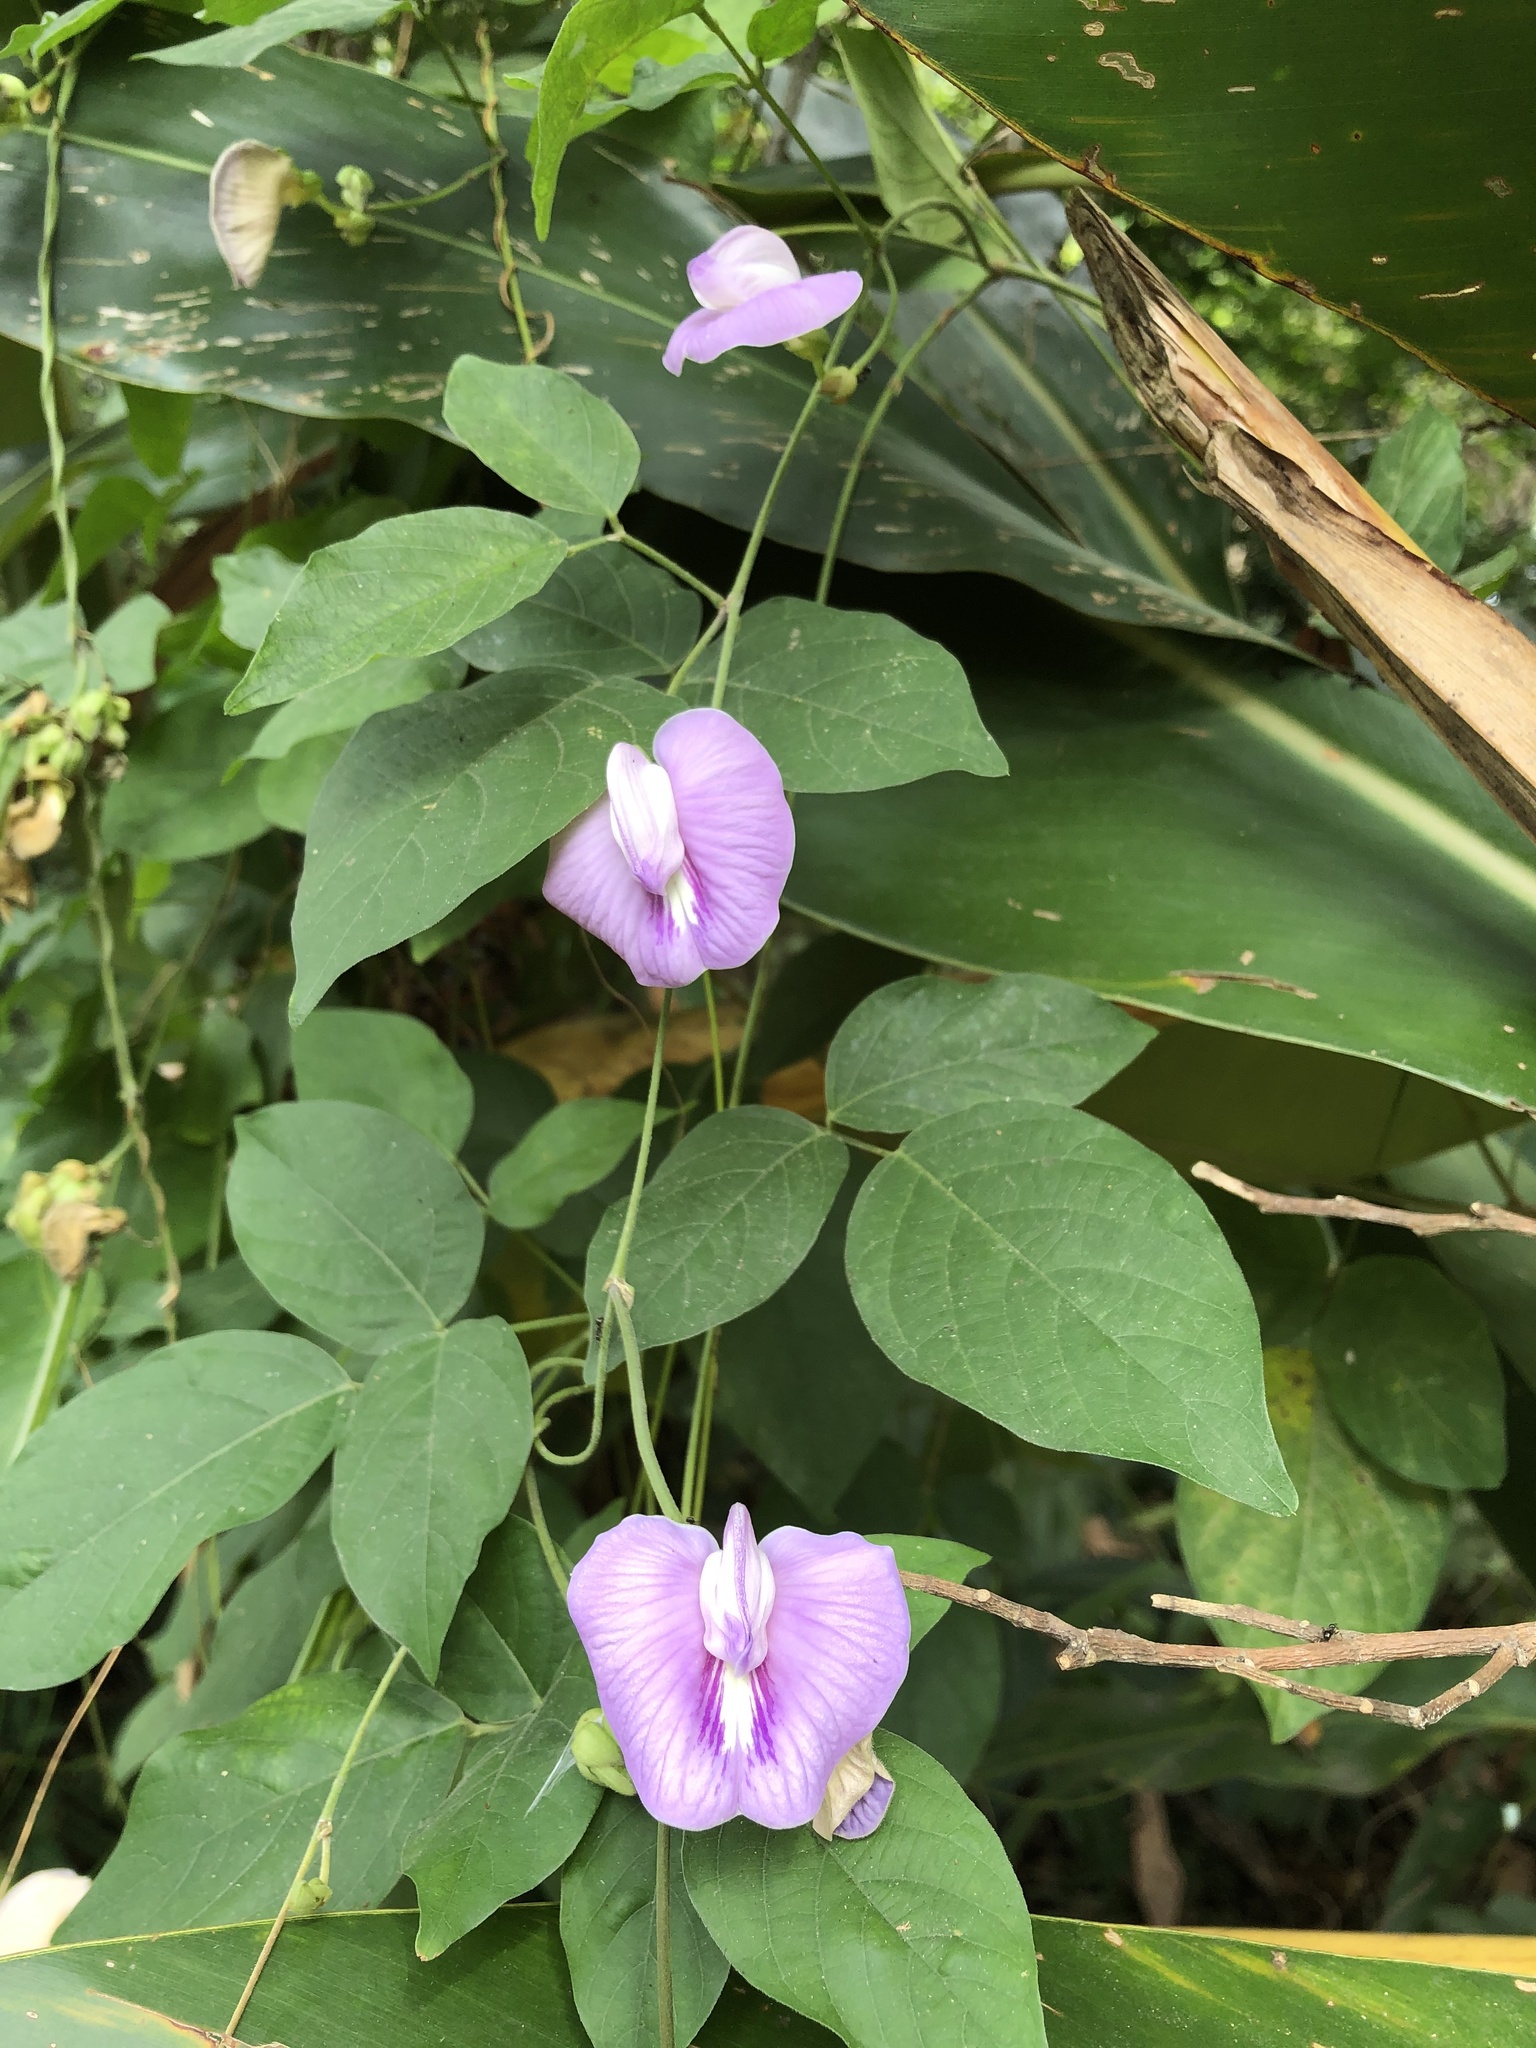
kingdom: Plantae
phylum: Tracheophyta
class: Magnoliopsida
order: Fabales
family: Fabaceae
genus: Centrosema
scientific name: Centrosema pubescens
